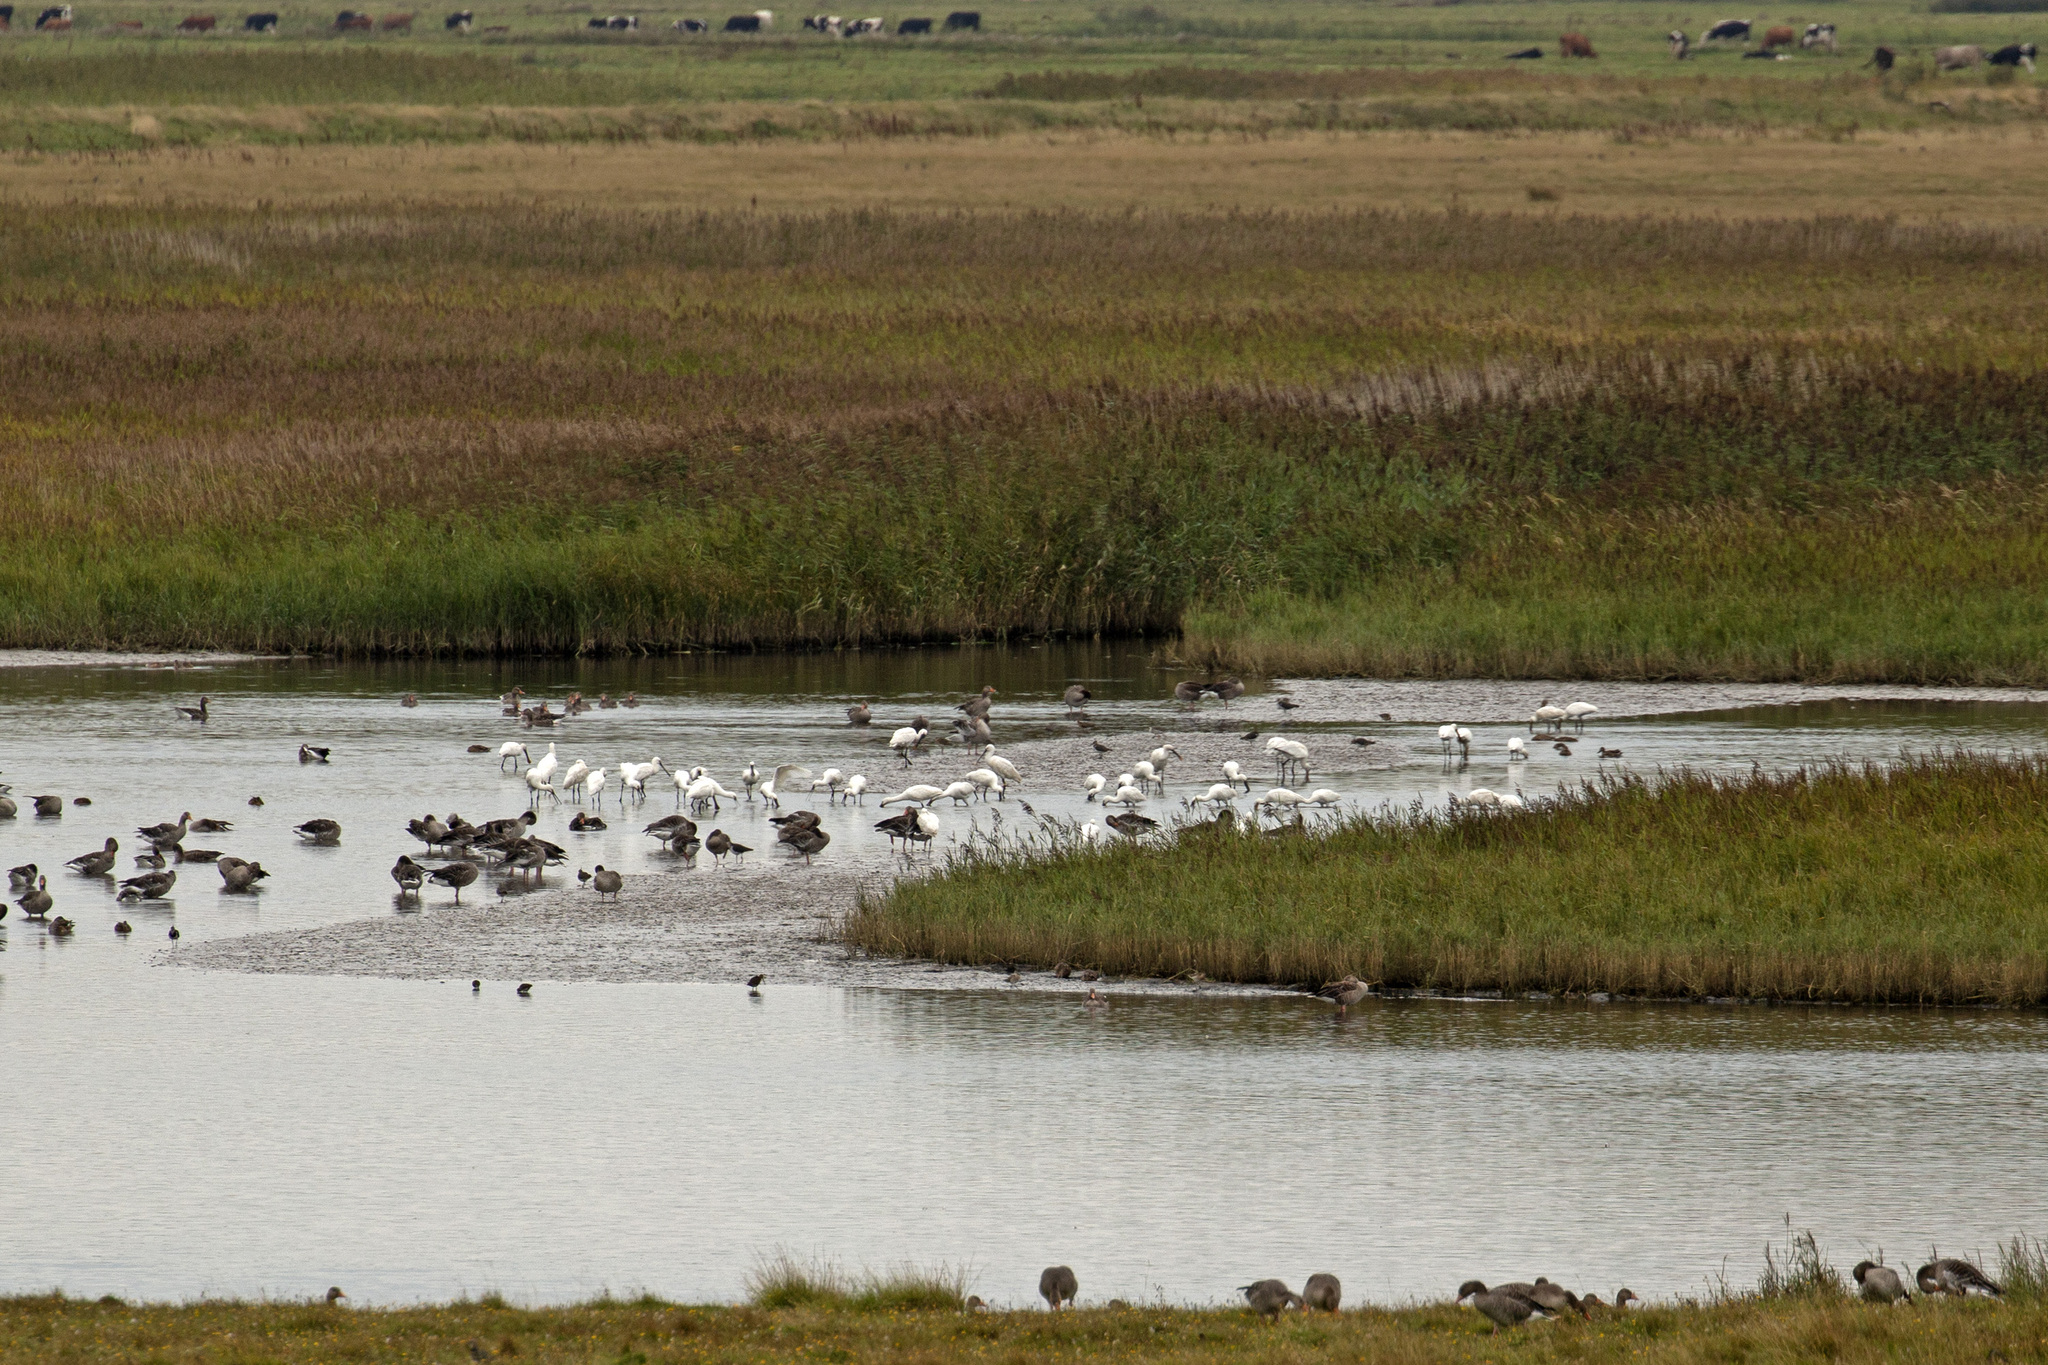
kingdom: Animalia
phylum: Chordata
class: Aves
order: Pelecaniformes
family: Threskiornithidae
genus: Platalea
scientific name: Platalea leucorodia
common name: Eurasian spoonbill
